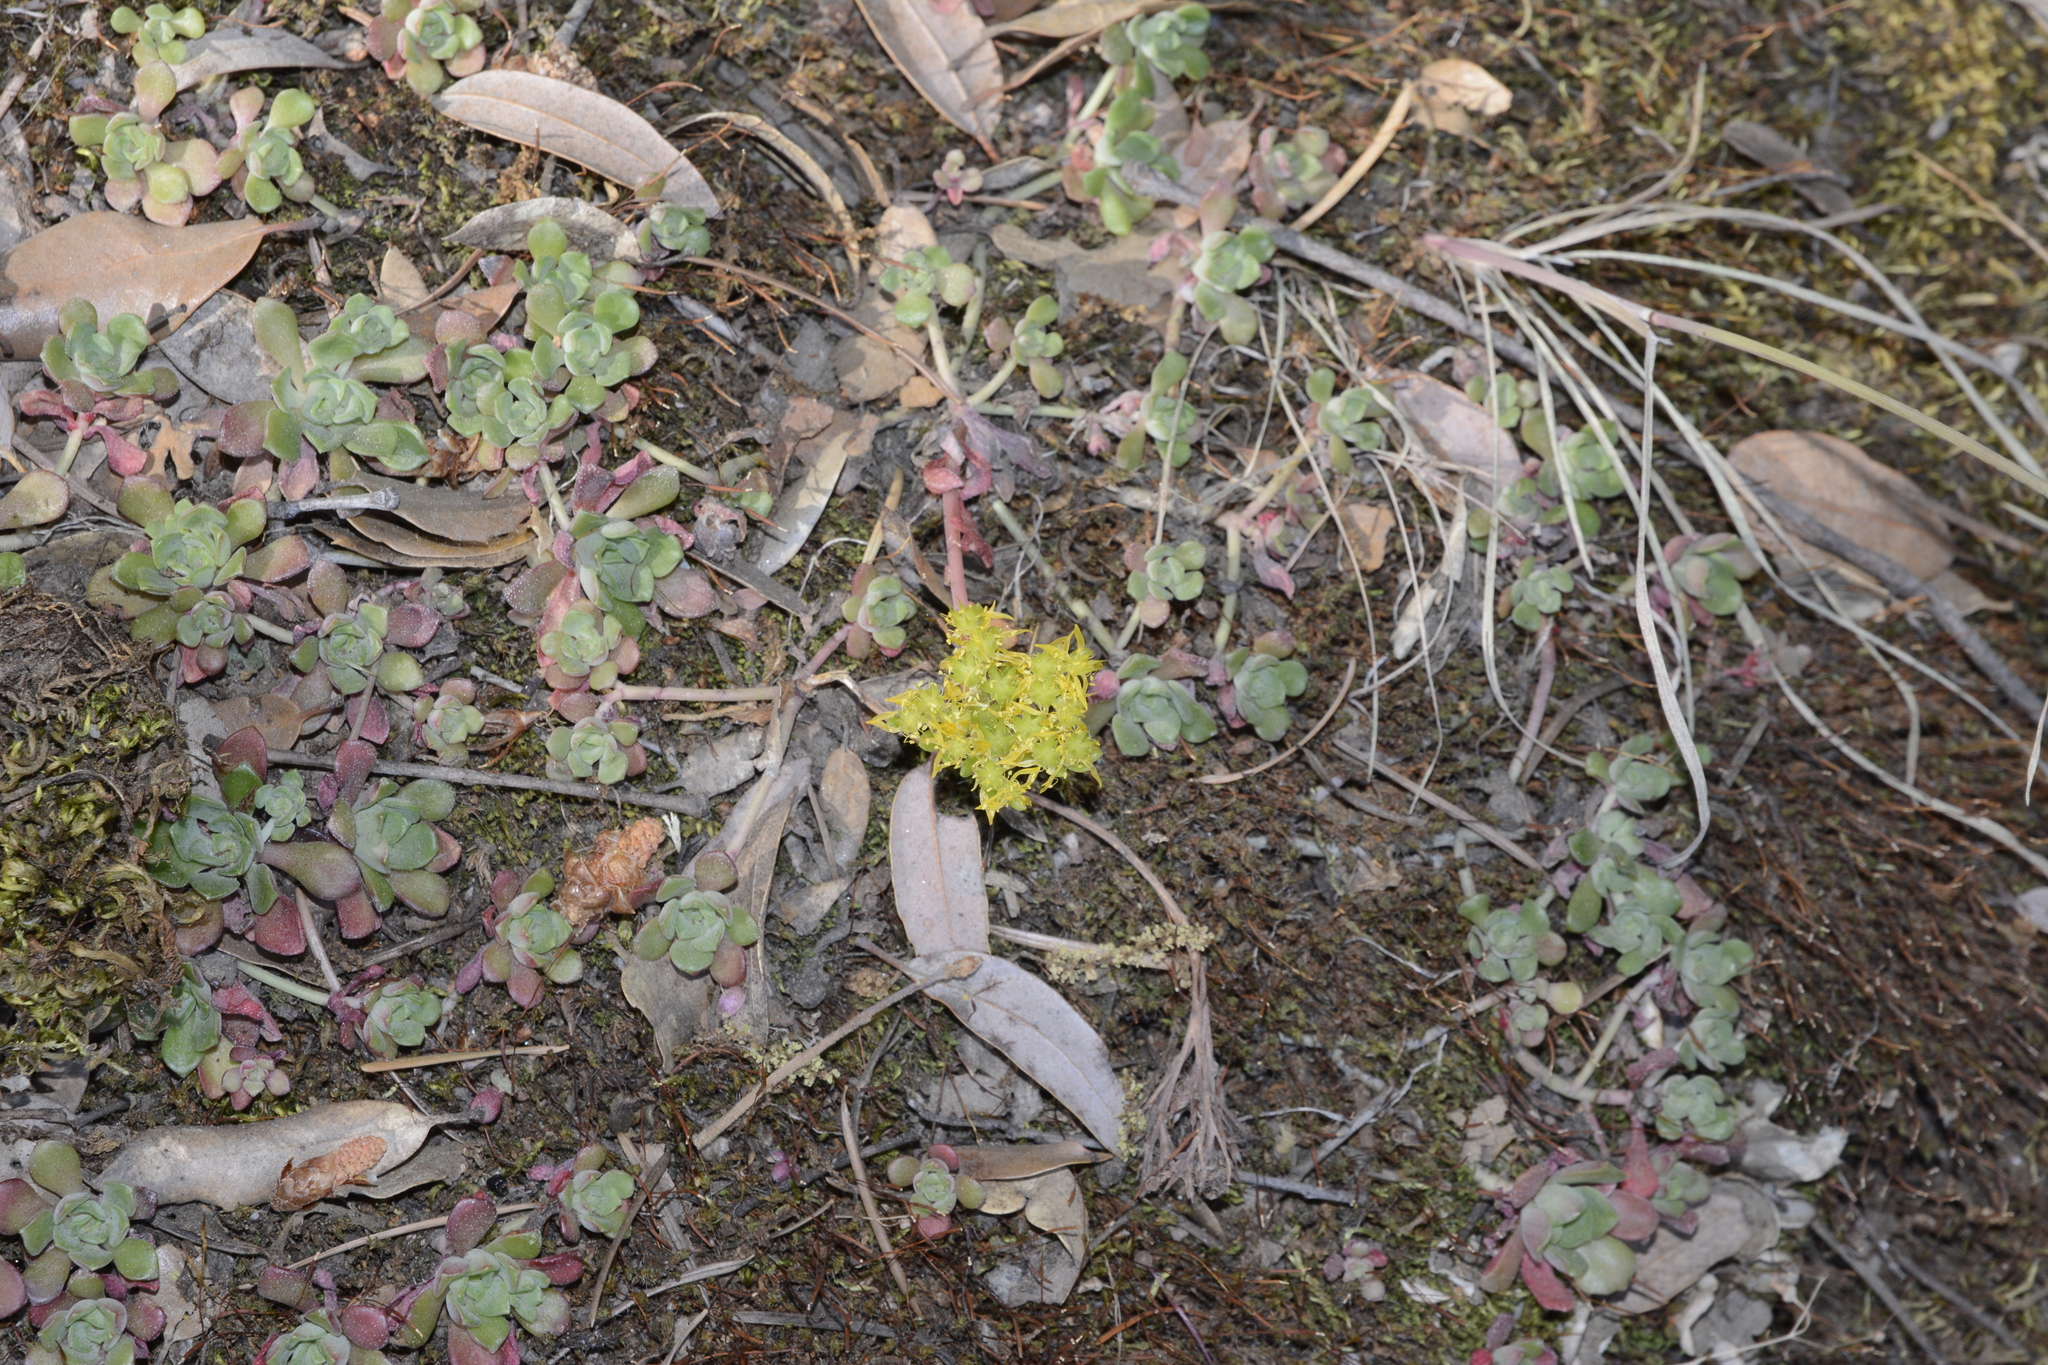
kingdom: Plantae
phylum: Tracheophyta
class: Magnoliopsida
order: Saxifragales
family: Crassulaceae
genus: Sedum
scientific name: Sedum spathulifolium
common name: Colorado stonecrop
